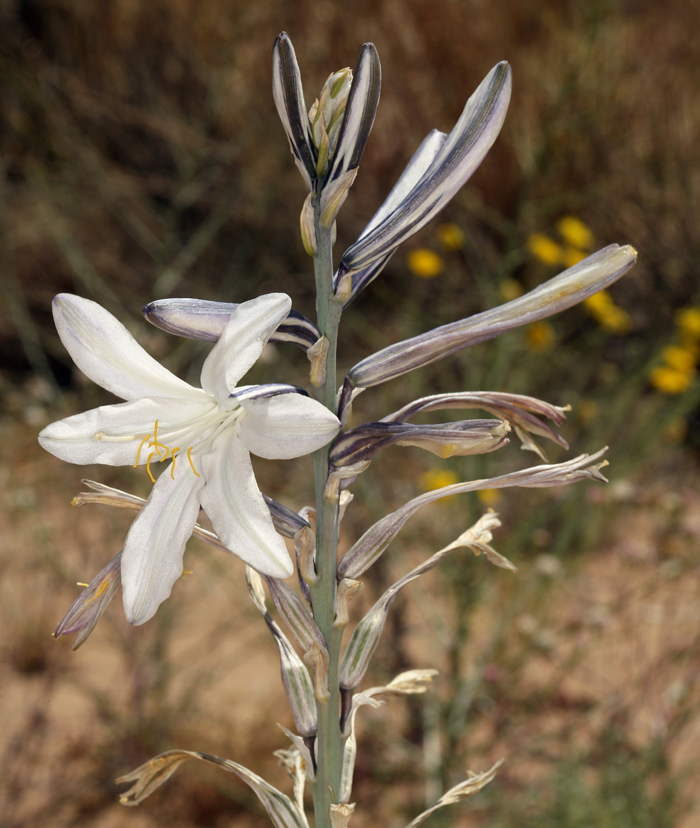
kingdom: Plantae
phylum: Tracheophyta
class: Liliopsida
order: Asparagales
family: Asparagaceae
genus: Hesperocallis
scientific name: Hesperocallis undulata
